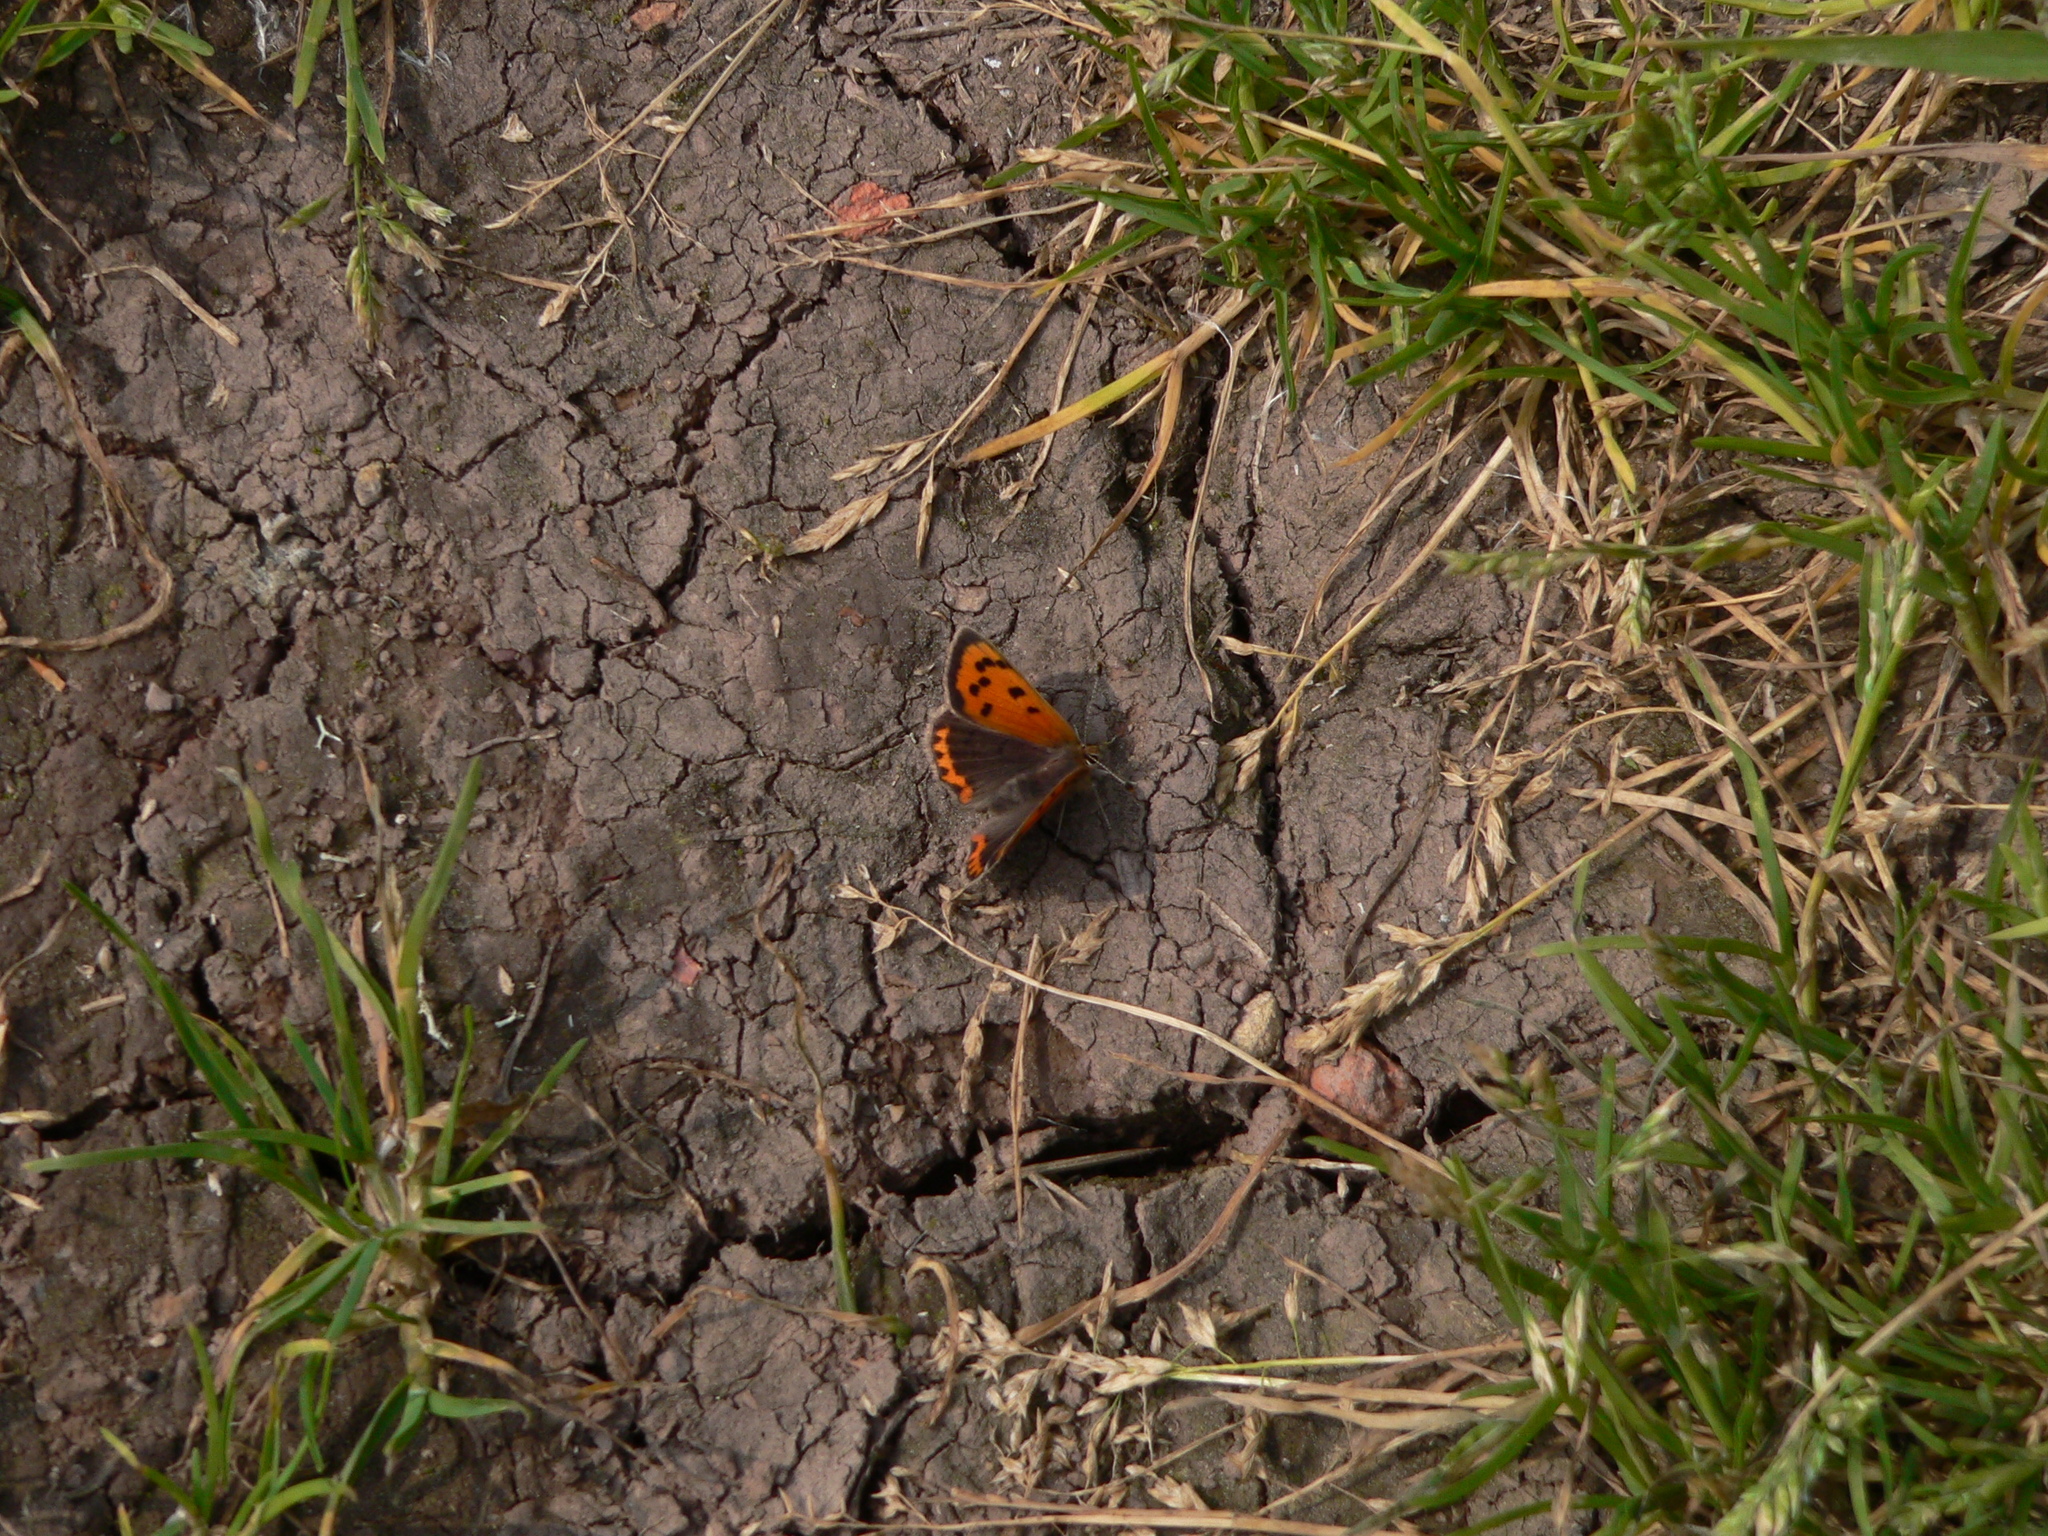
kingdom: Animalia
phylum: Arthropoda
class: Insecta
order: Lepidoptera
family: Lycaenidae
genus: Lycaena
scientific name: Lycaena phlaeas
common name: Small copper
